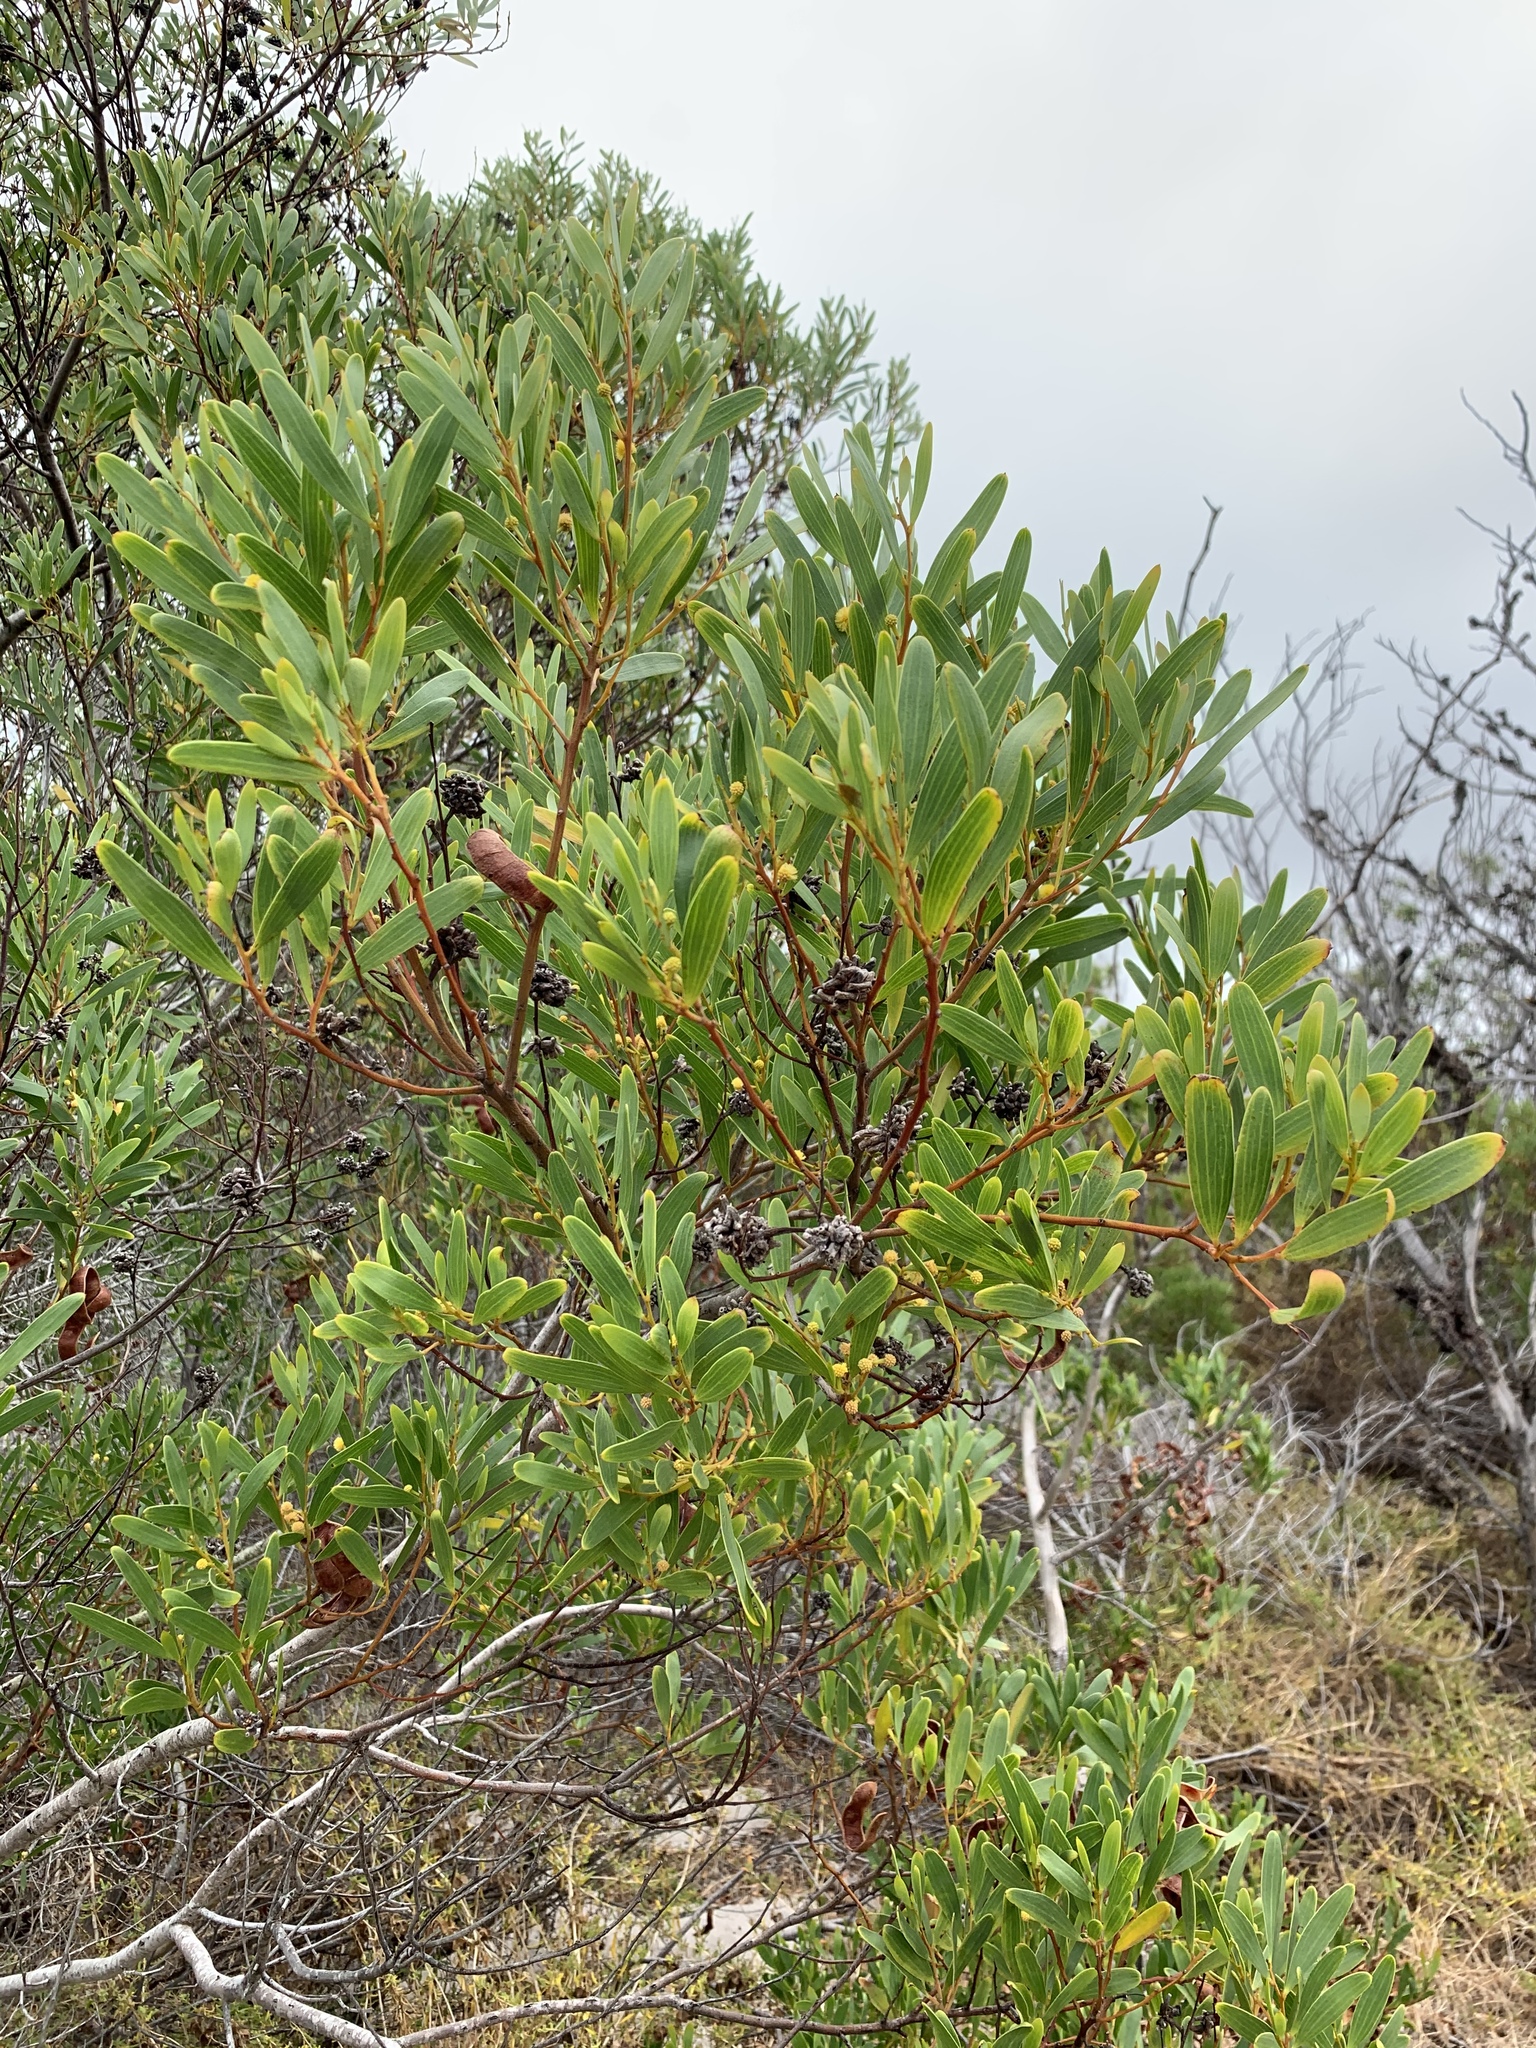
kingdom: Plantae
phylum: Tracheophyta
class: Magnoliopsida
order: Fabales
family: Fabaceae
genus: Acacia
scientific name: Acacia cyclops
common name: Coastal wattle
